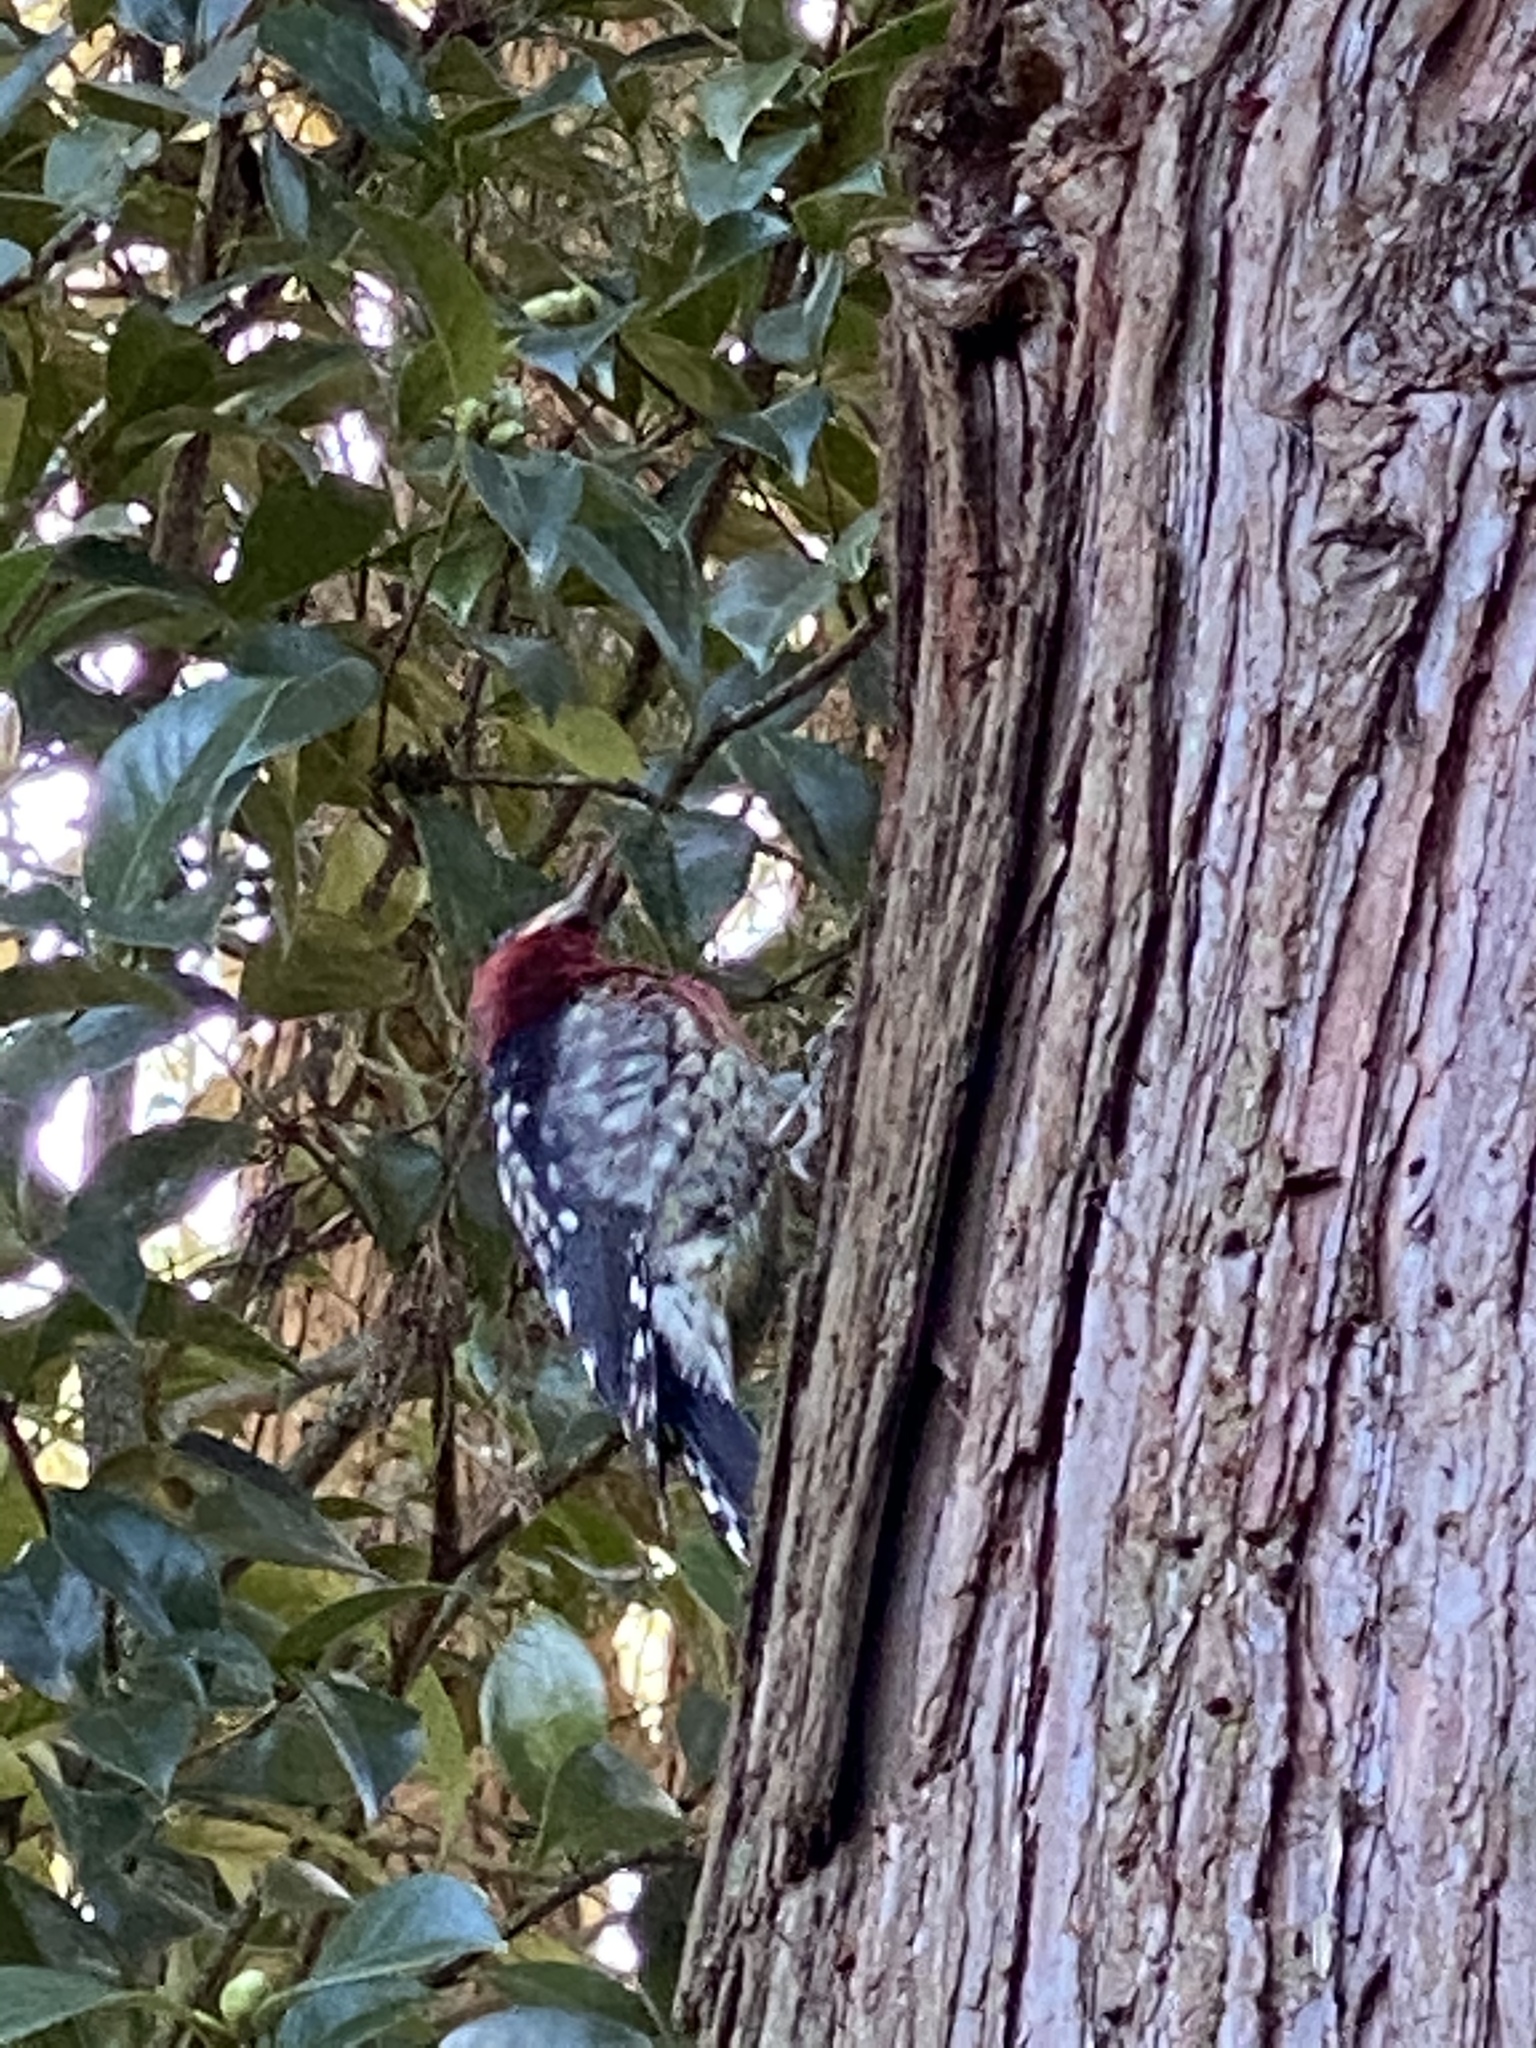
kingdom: Animalia
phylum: Chordata
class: Aves
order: Piciformes
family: Picidae
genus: Sphyrapicus
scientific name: Sphyrapicus ruber
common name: Red-breasted sapsucker
